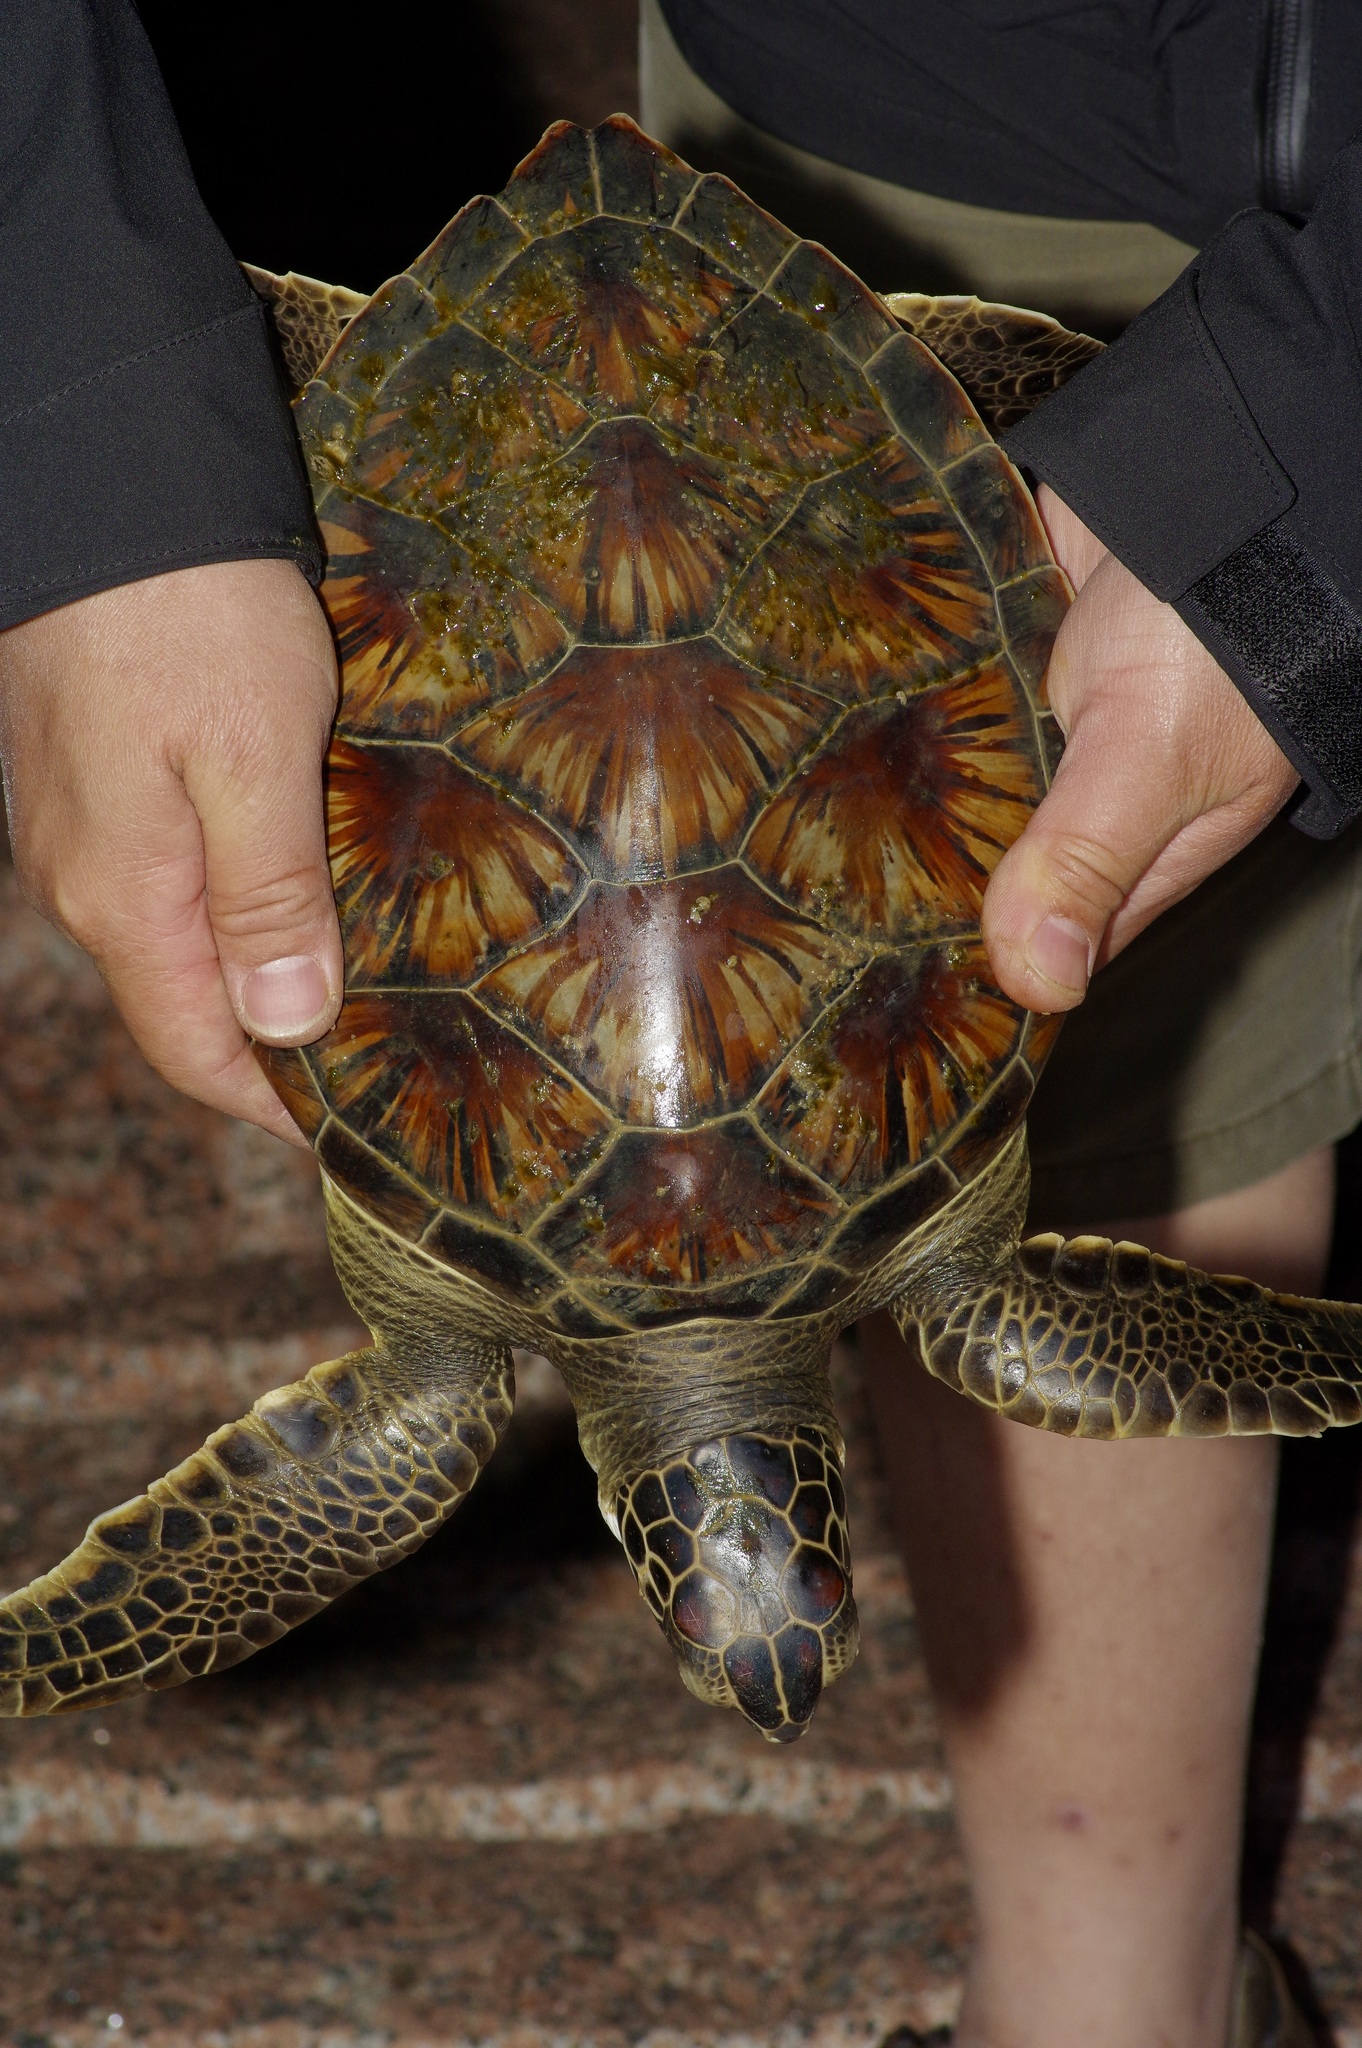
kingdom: Animalia
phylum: Chordata
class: Testudines
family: Cheloniidae
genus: Chelonia
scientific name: Chelonia mydas
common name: Green turtle
